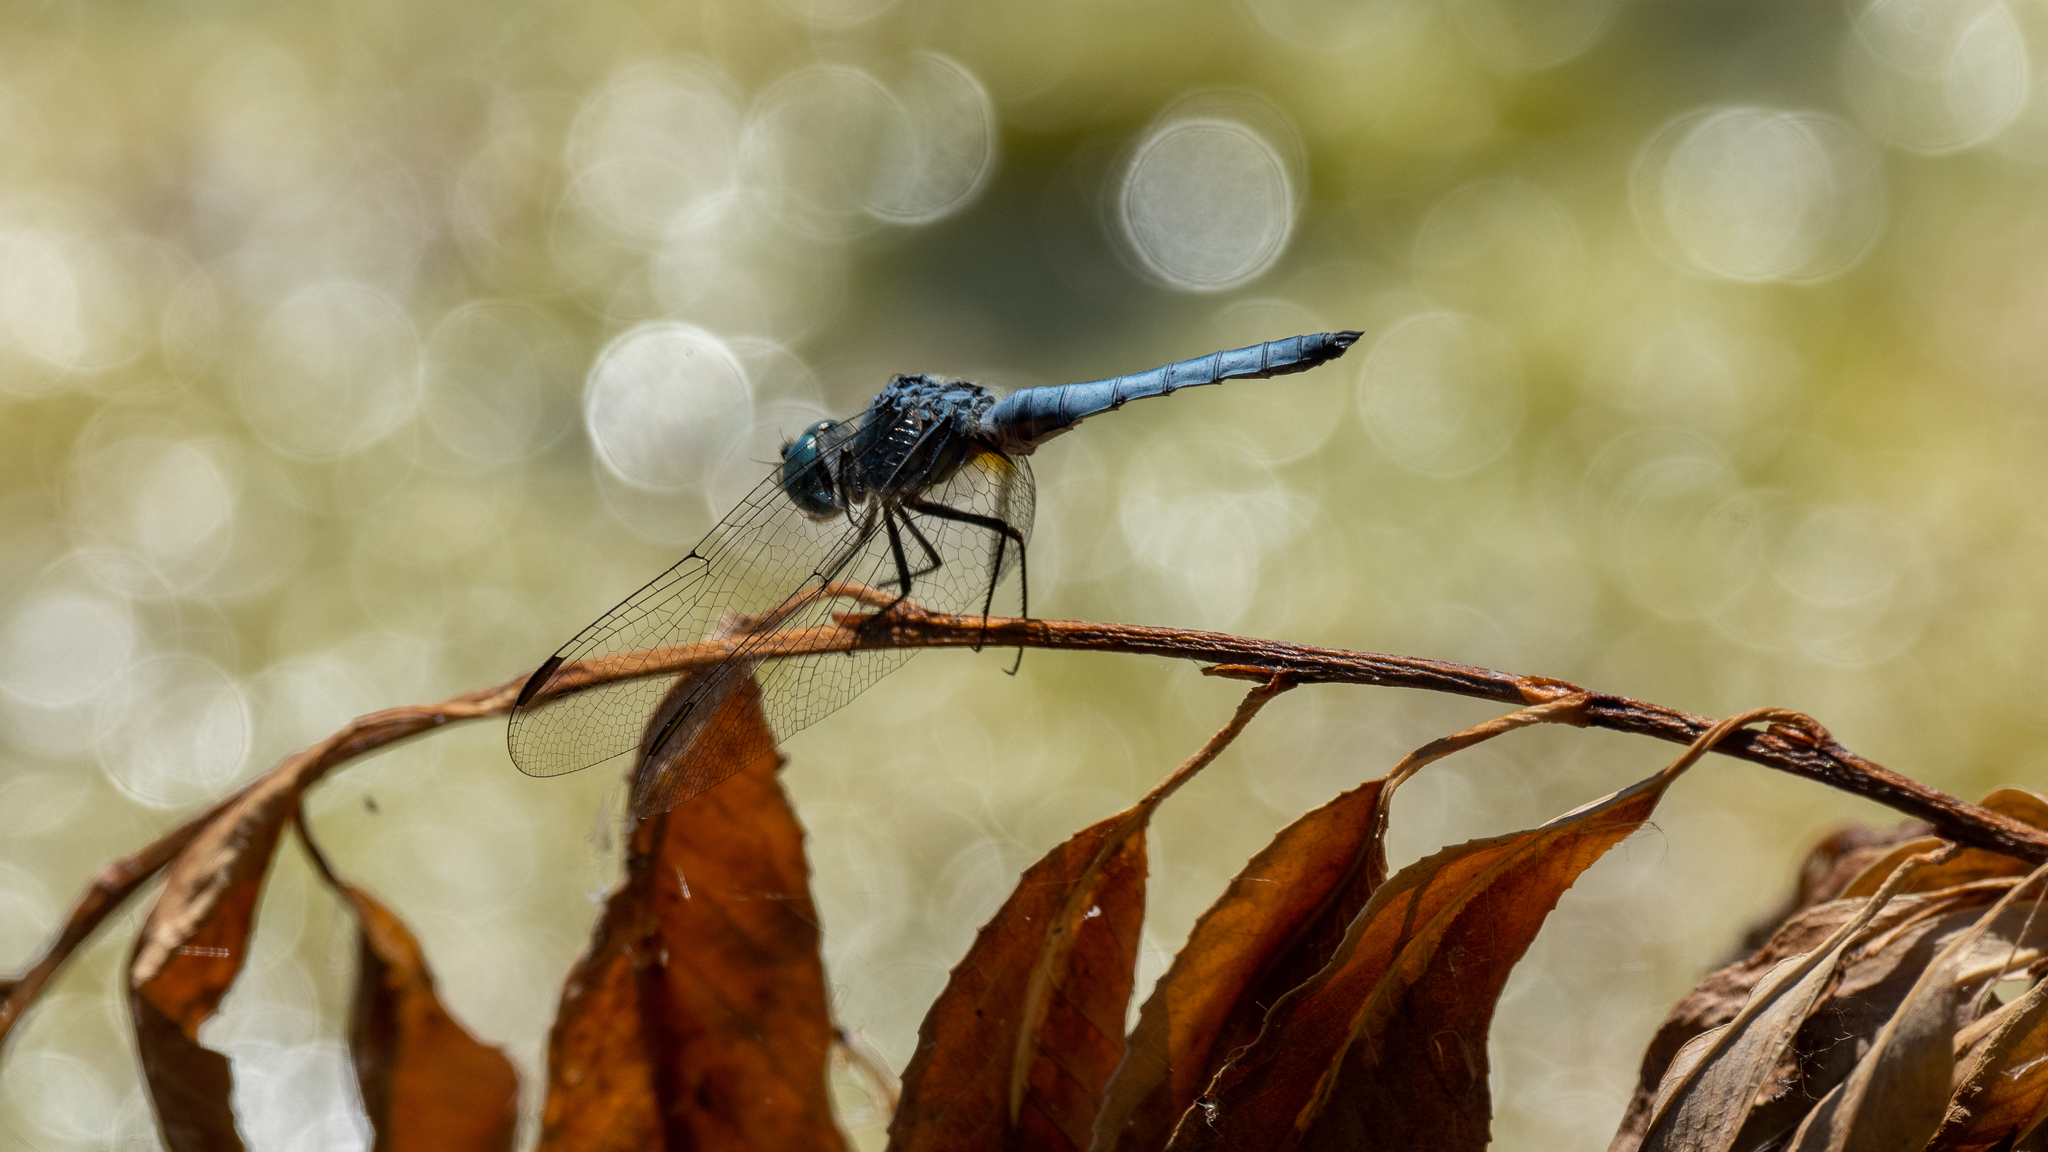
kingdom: Animalia
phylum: Arthropoda
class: Insecta
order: Odonata
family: Libellulidae
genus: Pachydiplax
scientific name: Pachydiplax longipennis
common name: Blue dasher
